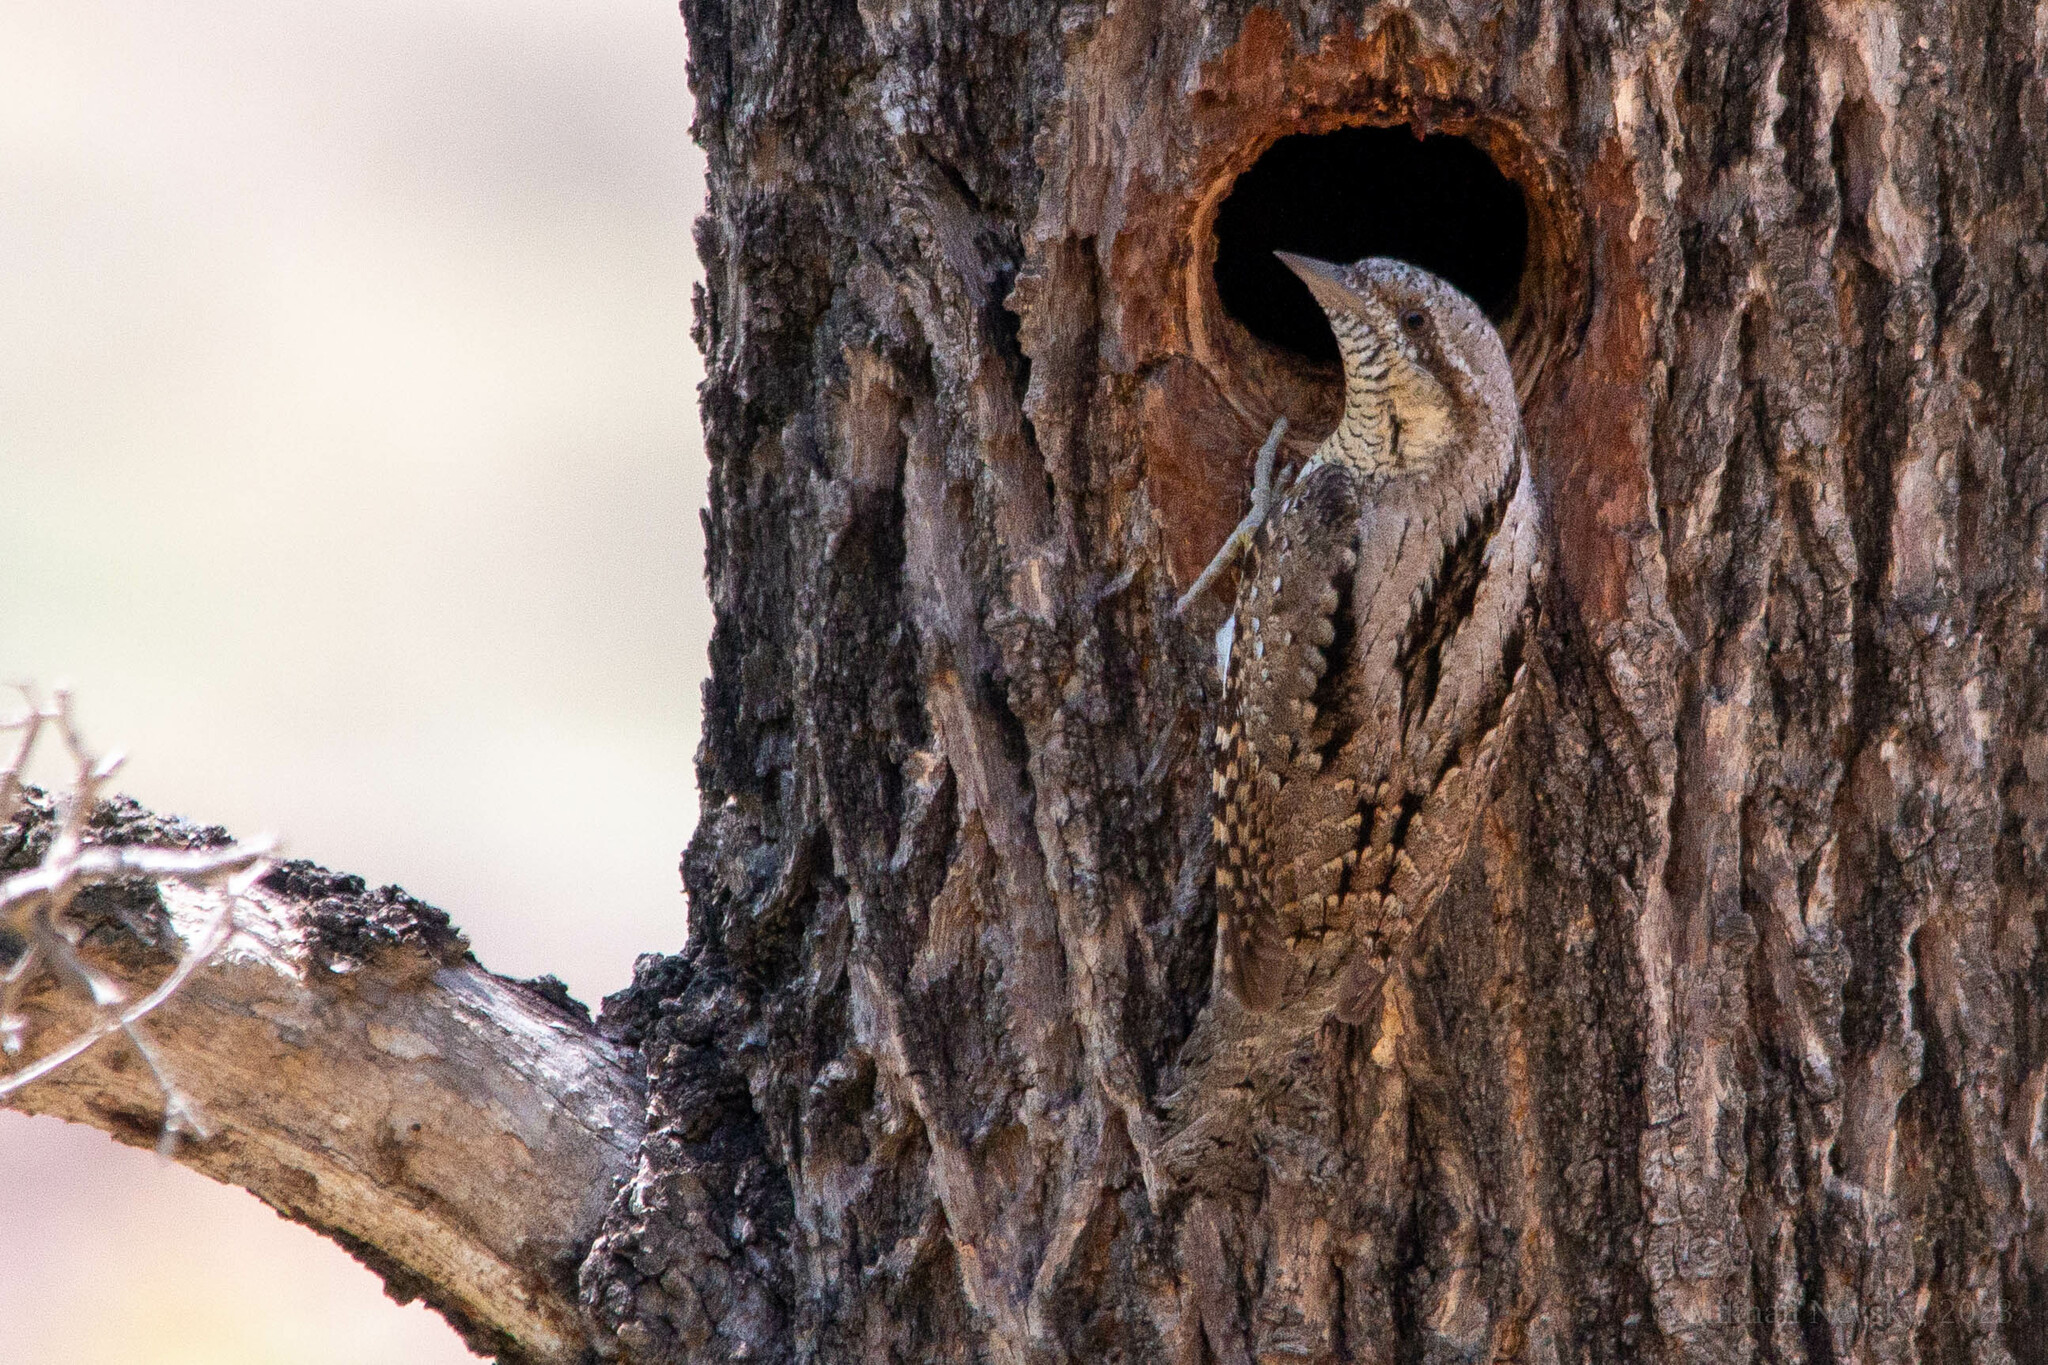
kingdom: Animalia
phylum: Chordata
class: Aves
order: Piciformes
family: Picidae
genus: Jynx
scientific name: Jynx torquilla
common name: Eurasian wryneck
